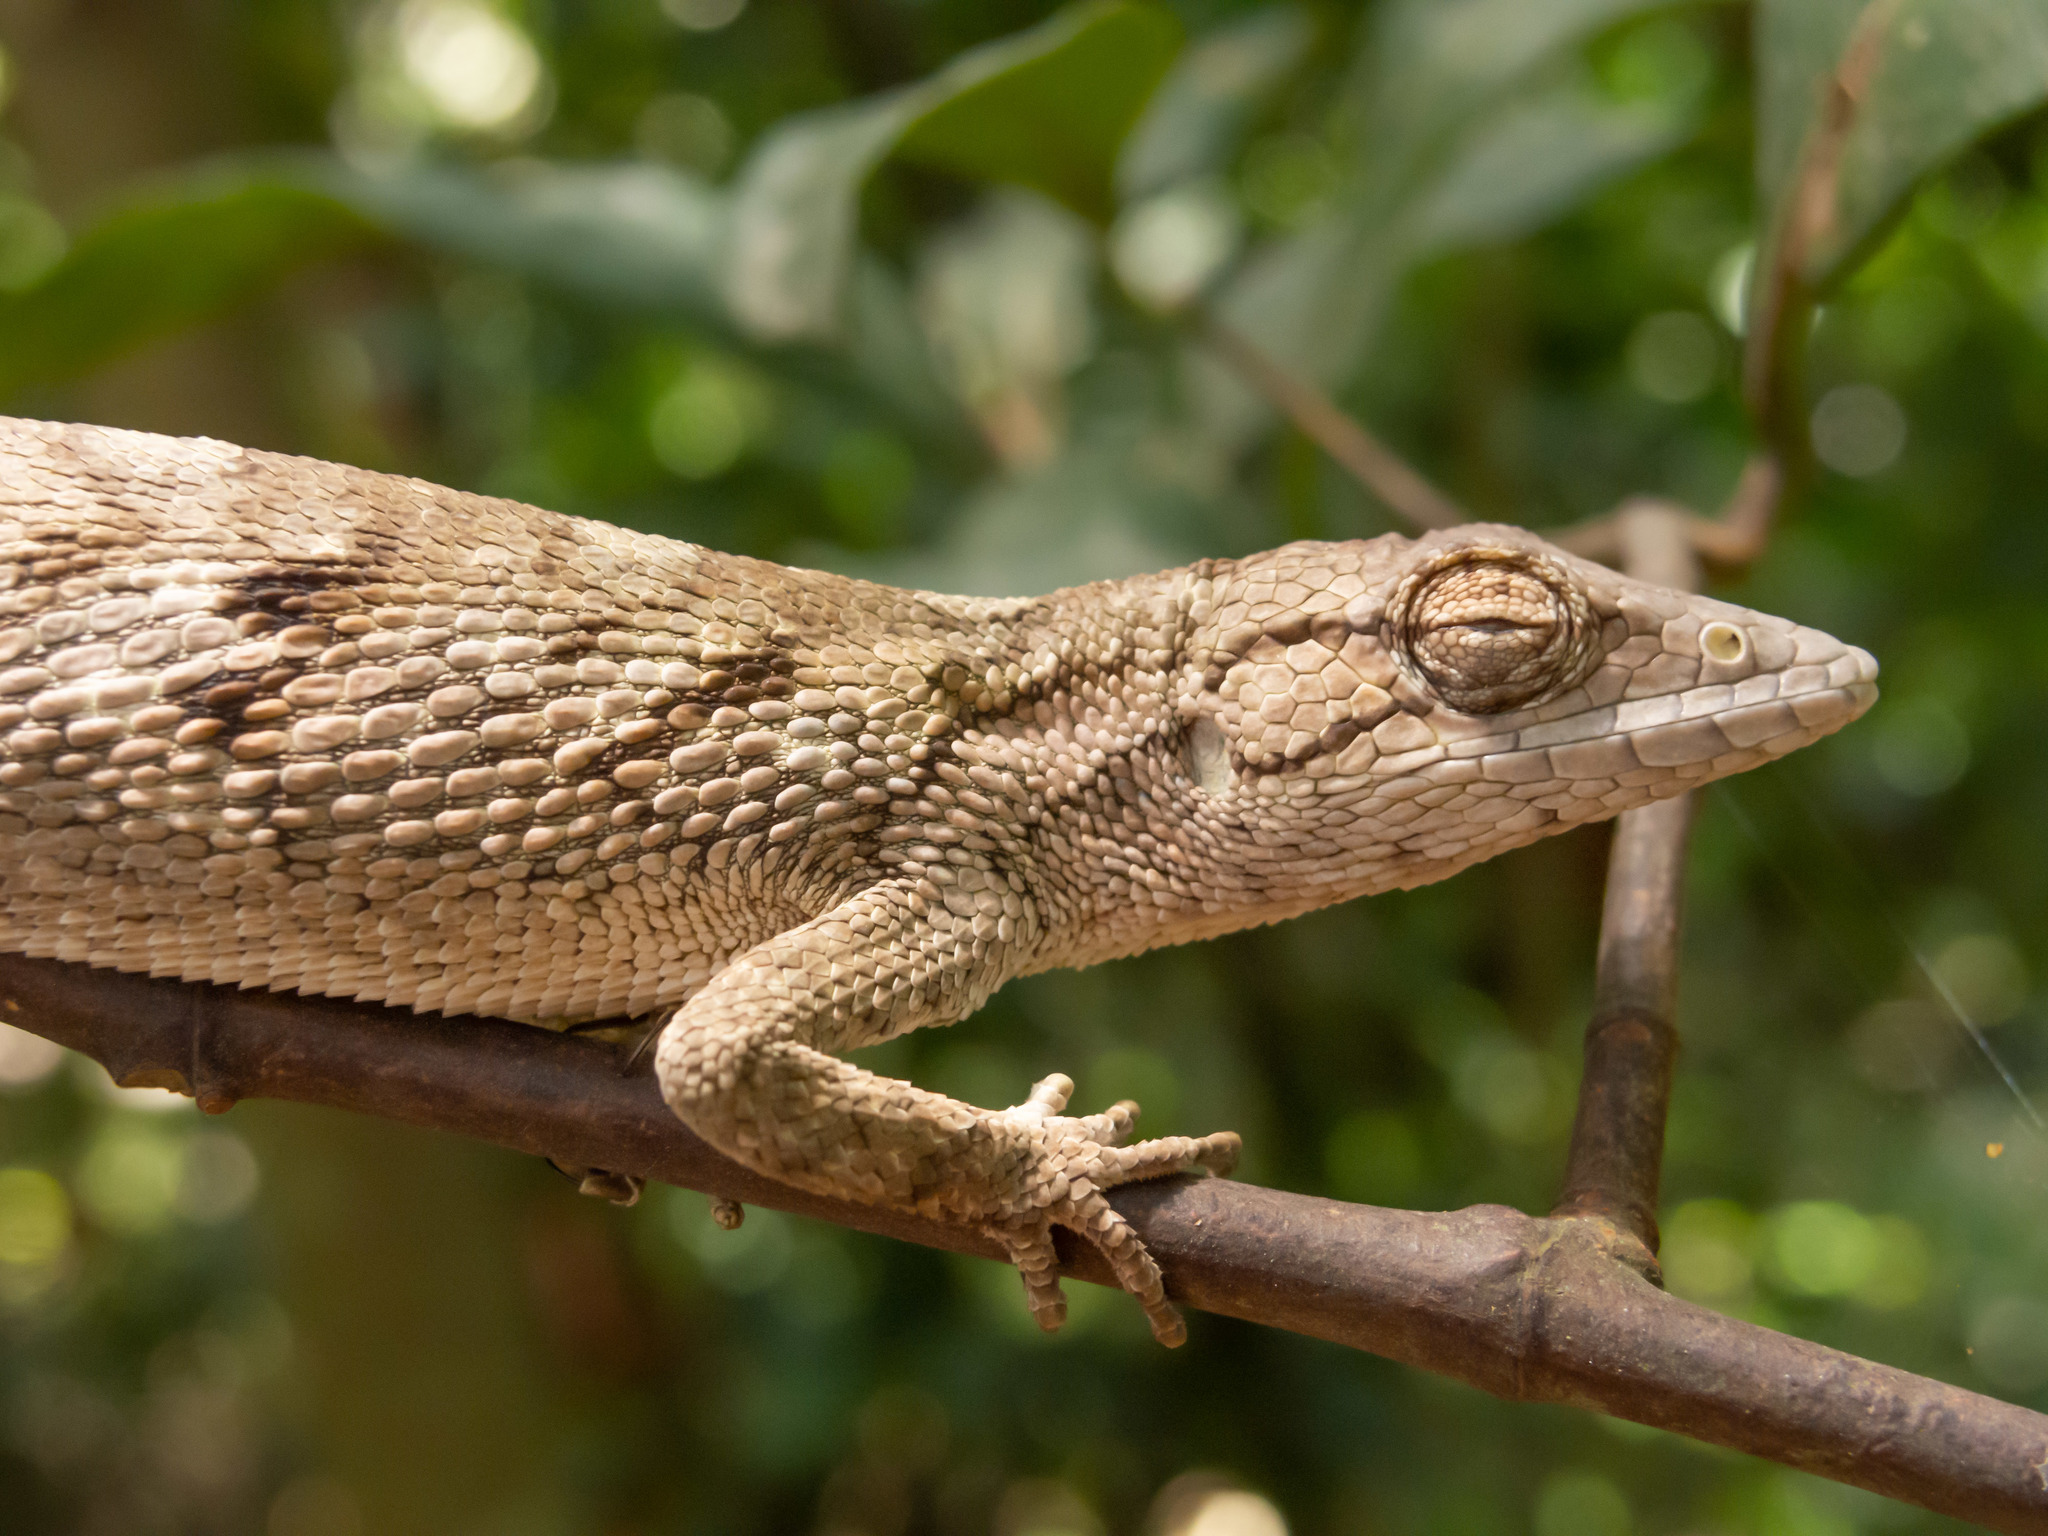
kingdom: Animalia
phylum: Chordata
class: Squamata
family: Polychrotidae
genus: Polychrus
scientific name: Polychrus acutirostris
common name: Brazilian bush anole
